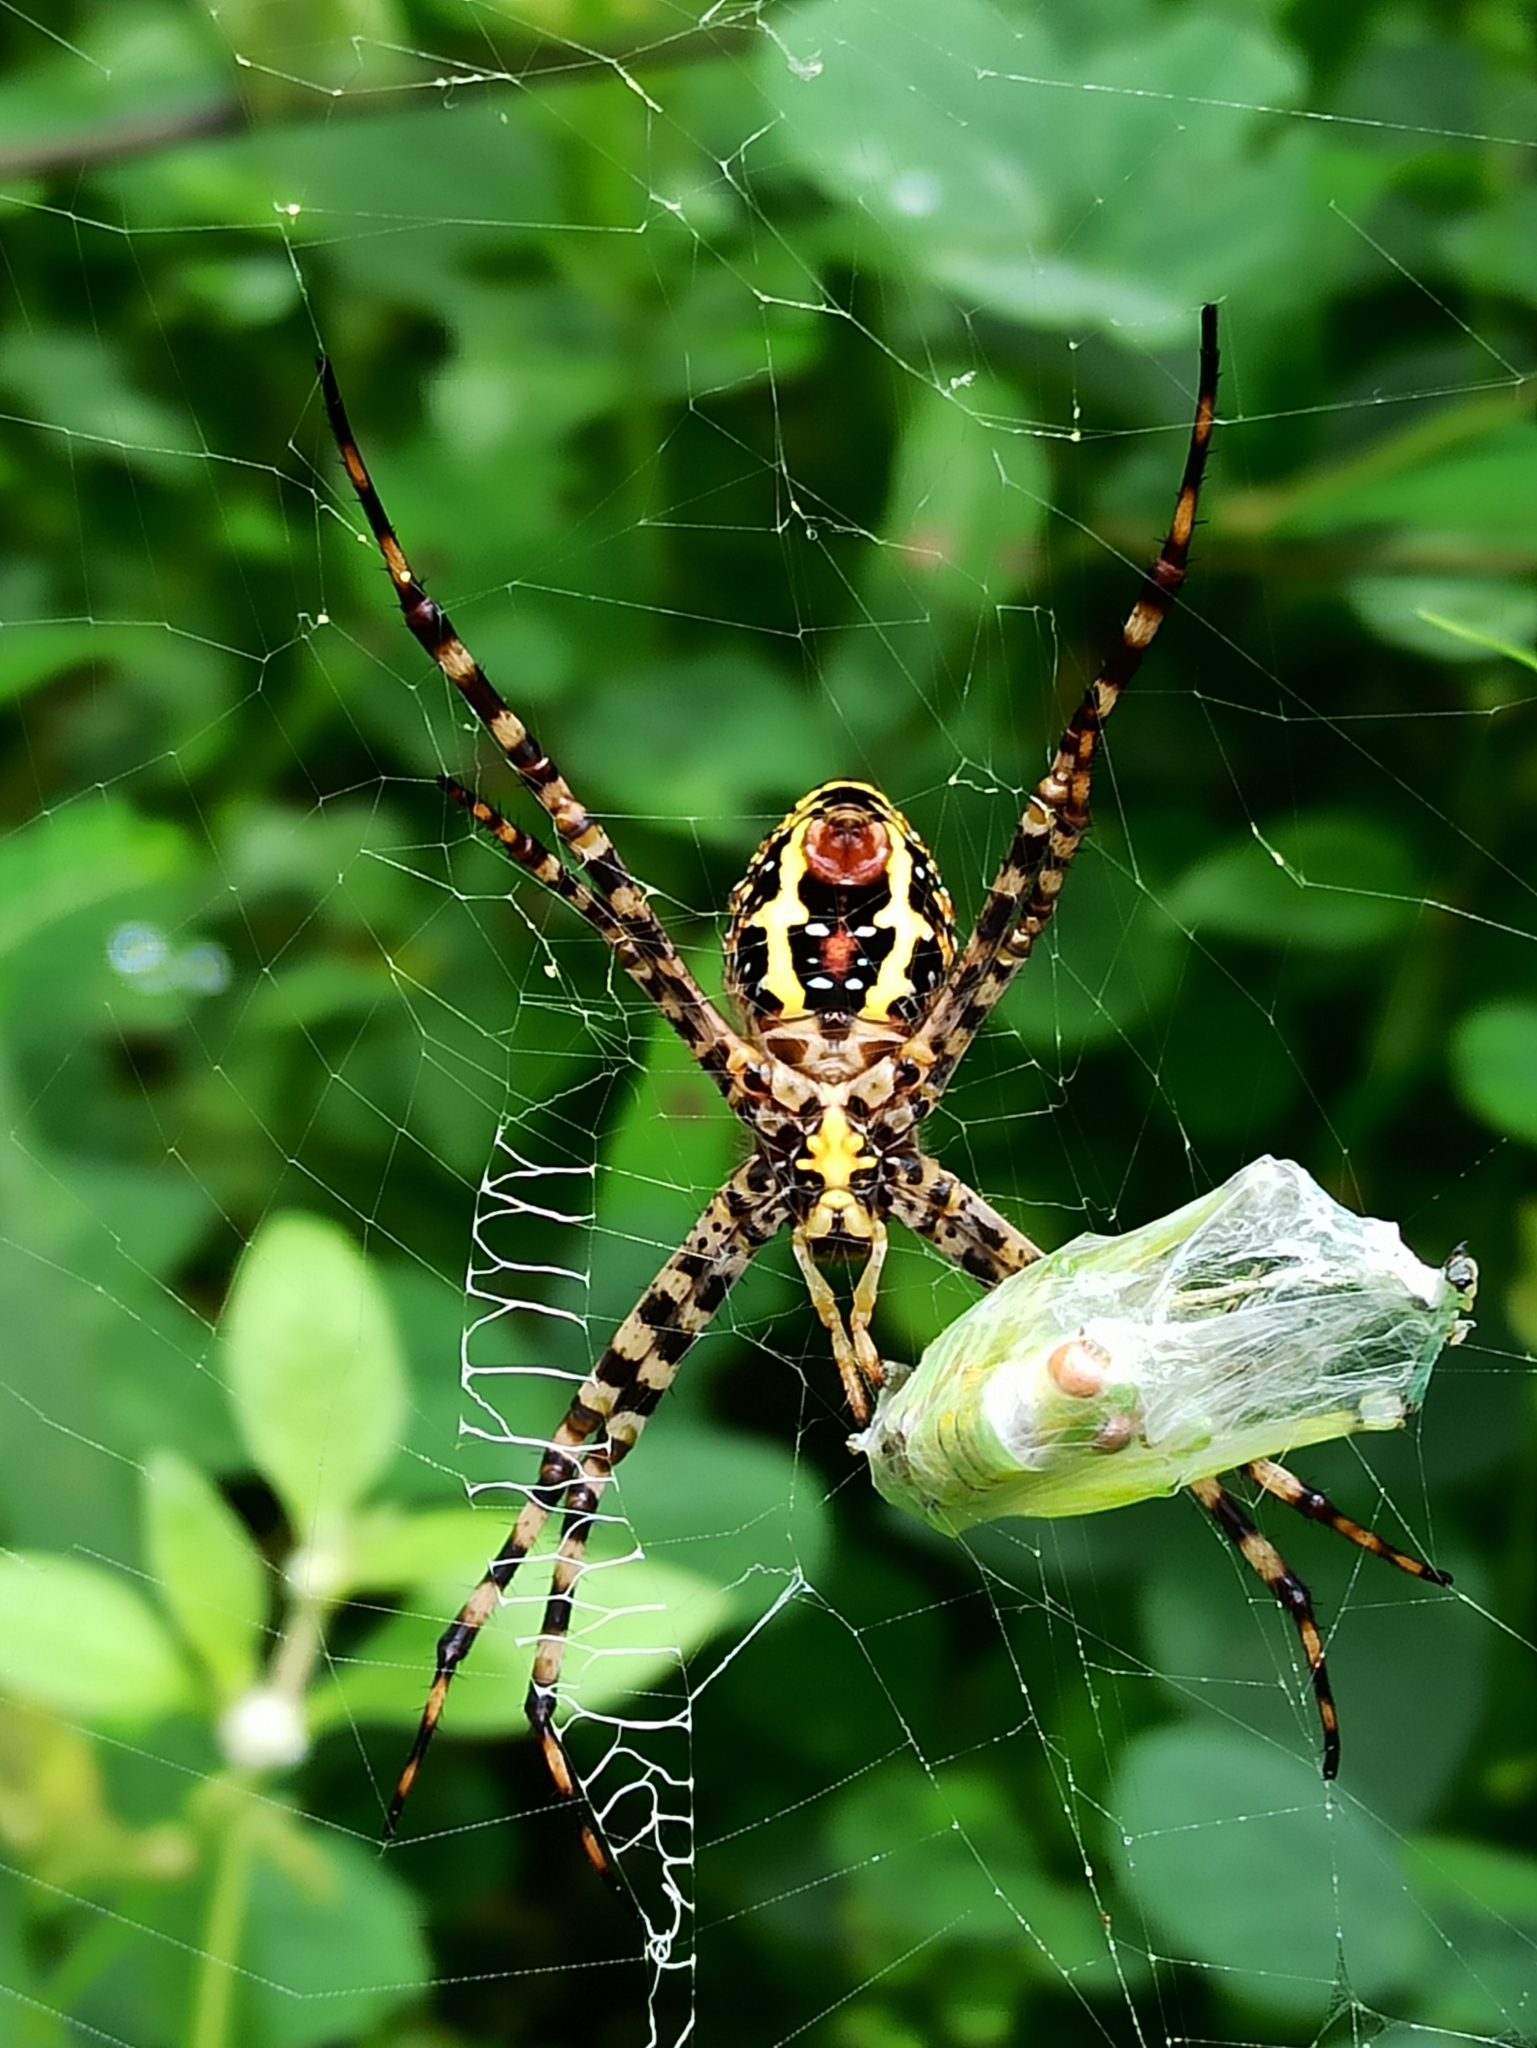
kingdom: Animalia
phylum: Arthropoda
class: Arachnida
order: Araneae
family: Araneidae
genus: Argiope
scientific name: Argiope aemula
